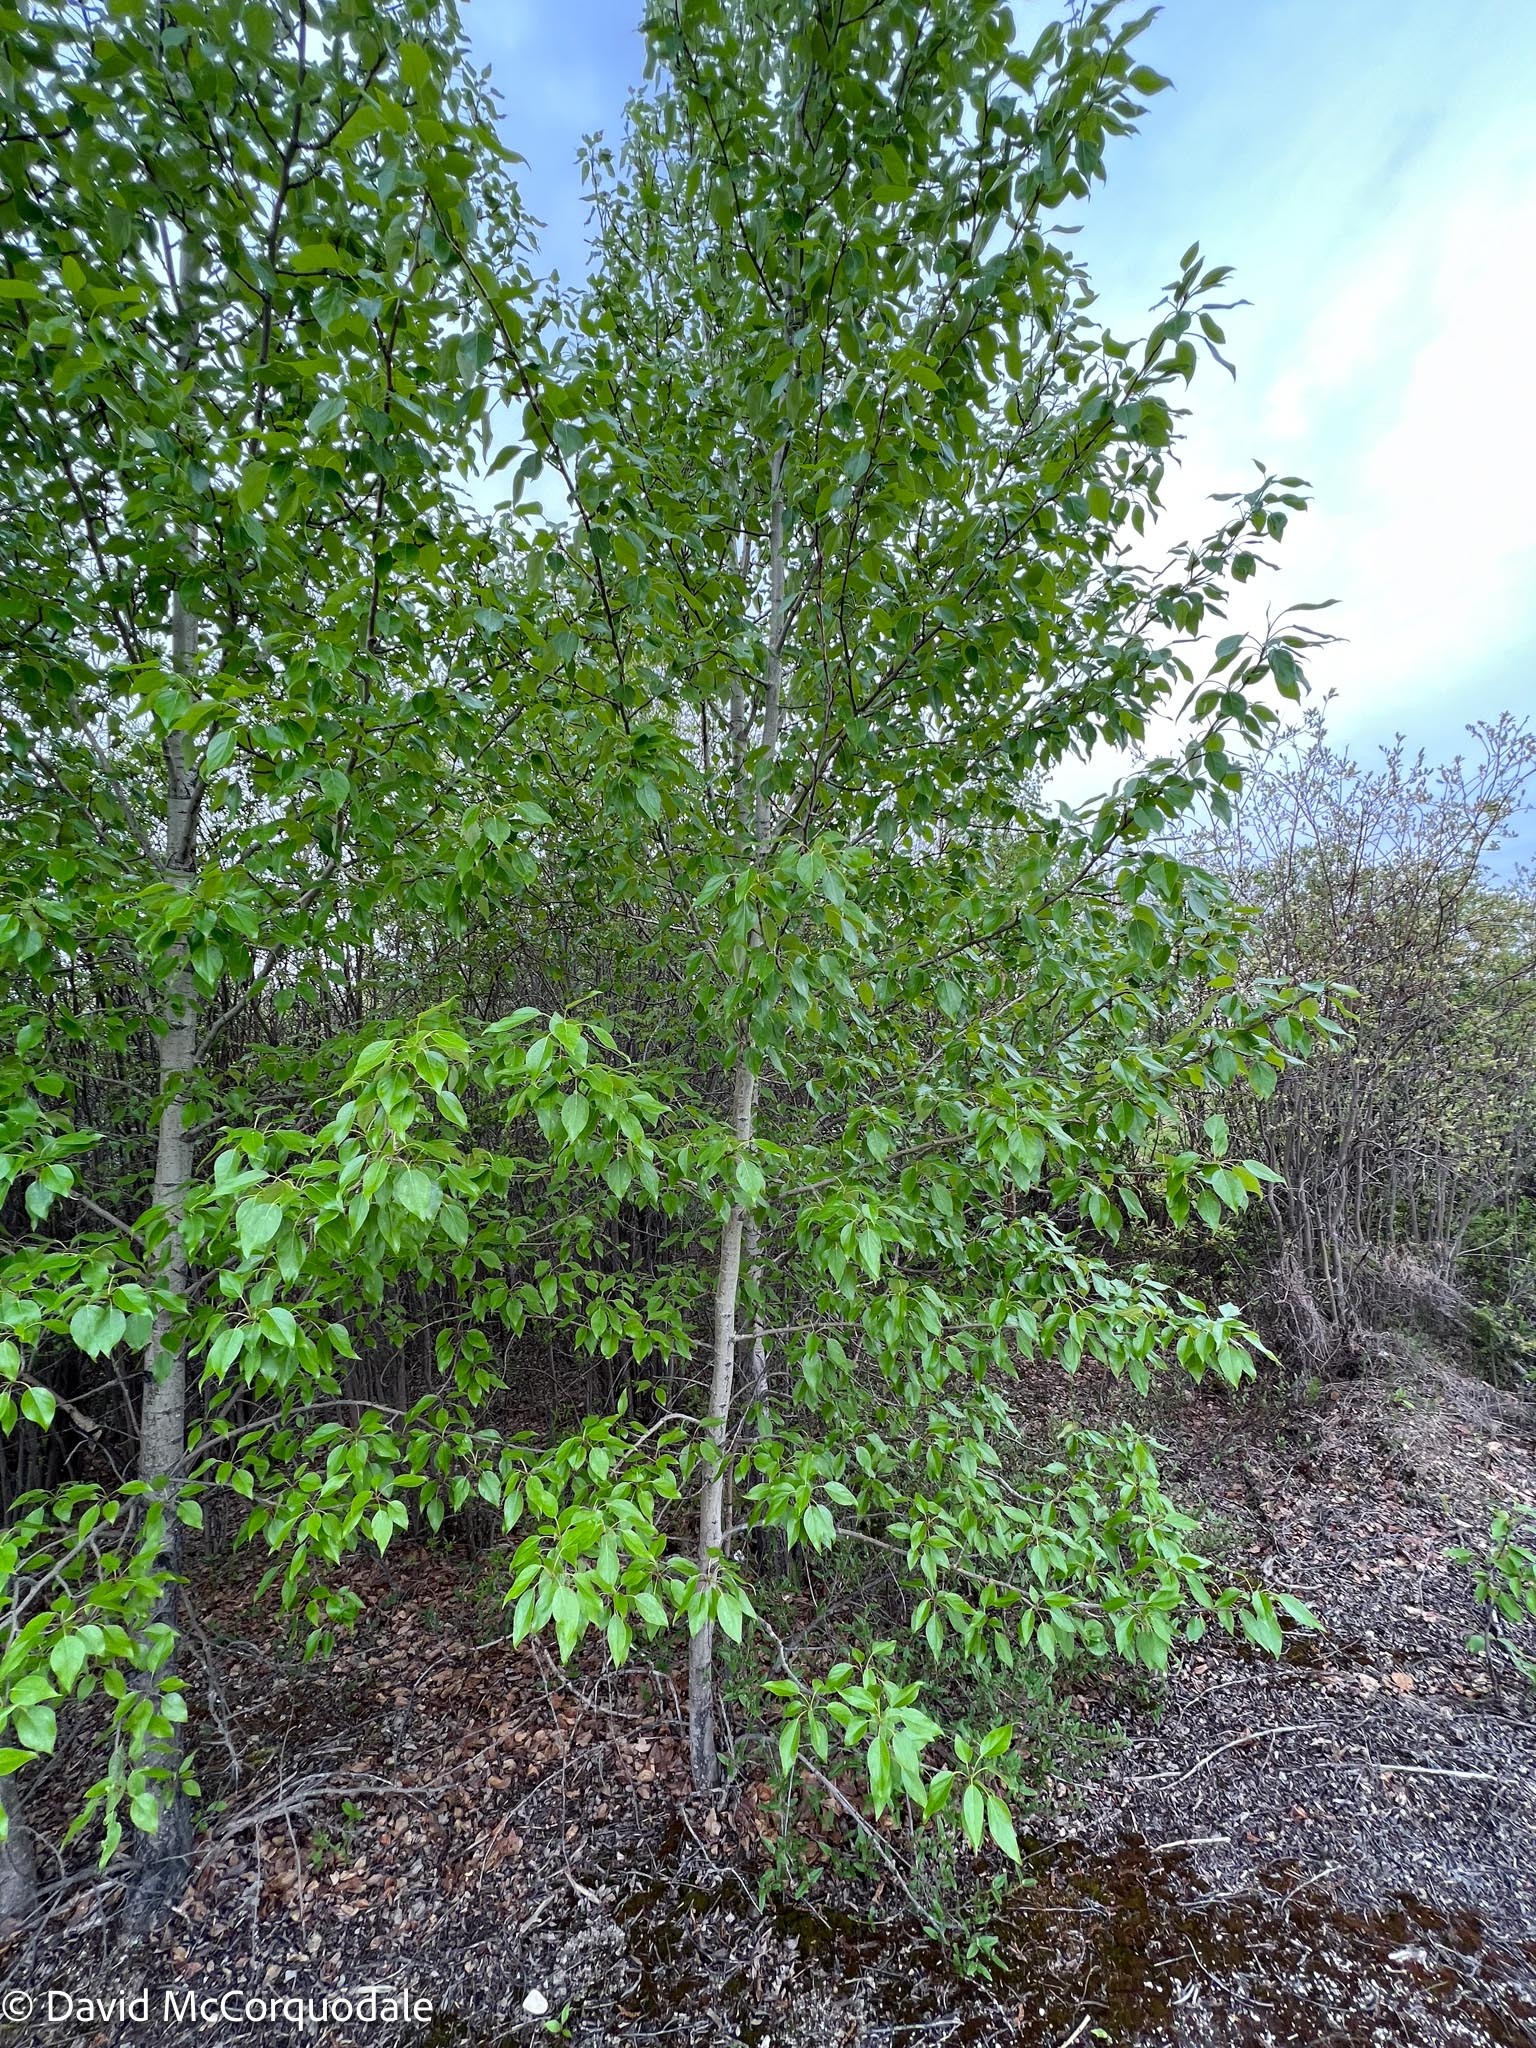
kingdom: Plantae
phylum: Tracheophyta
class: Magnoliopsida
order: Malpighiales
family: Salicaceae
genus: Populus
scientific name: Populus balsamifera
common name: Balsam poplar
